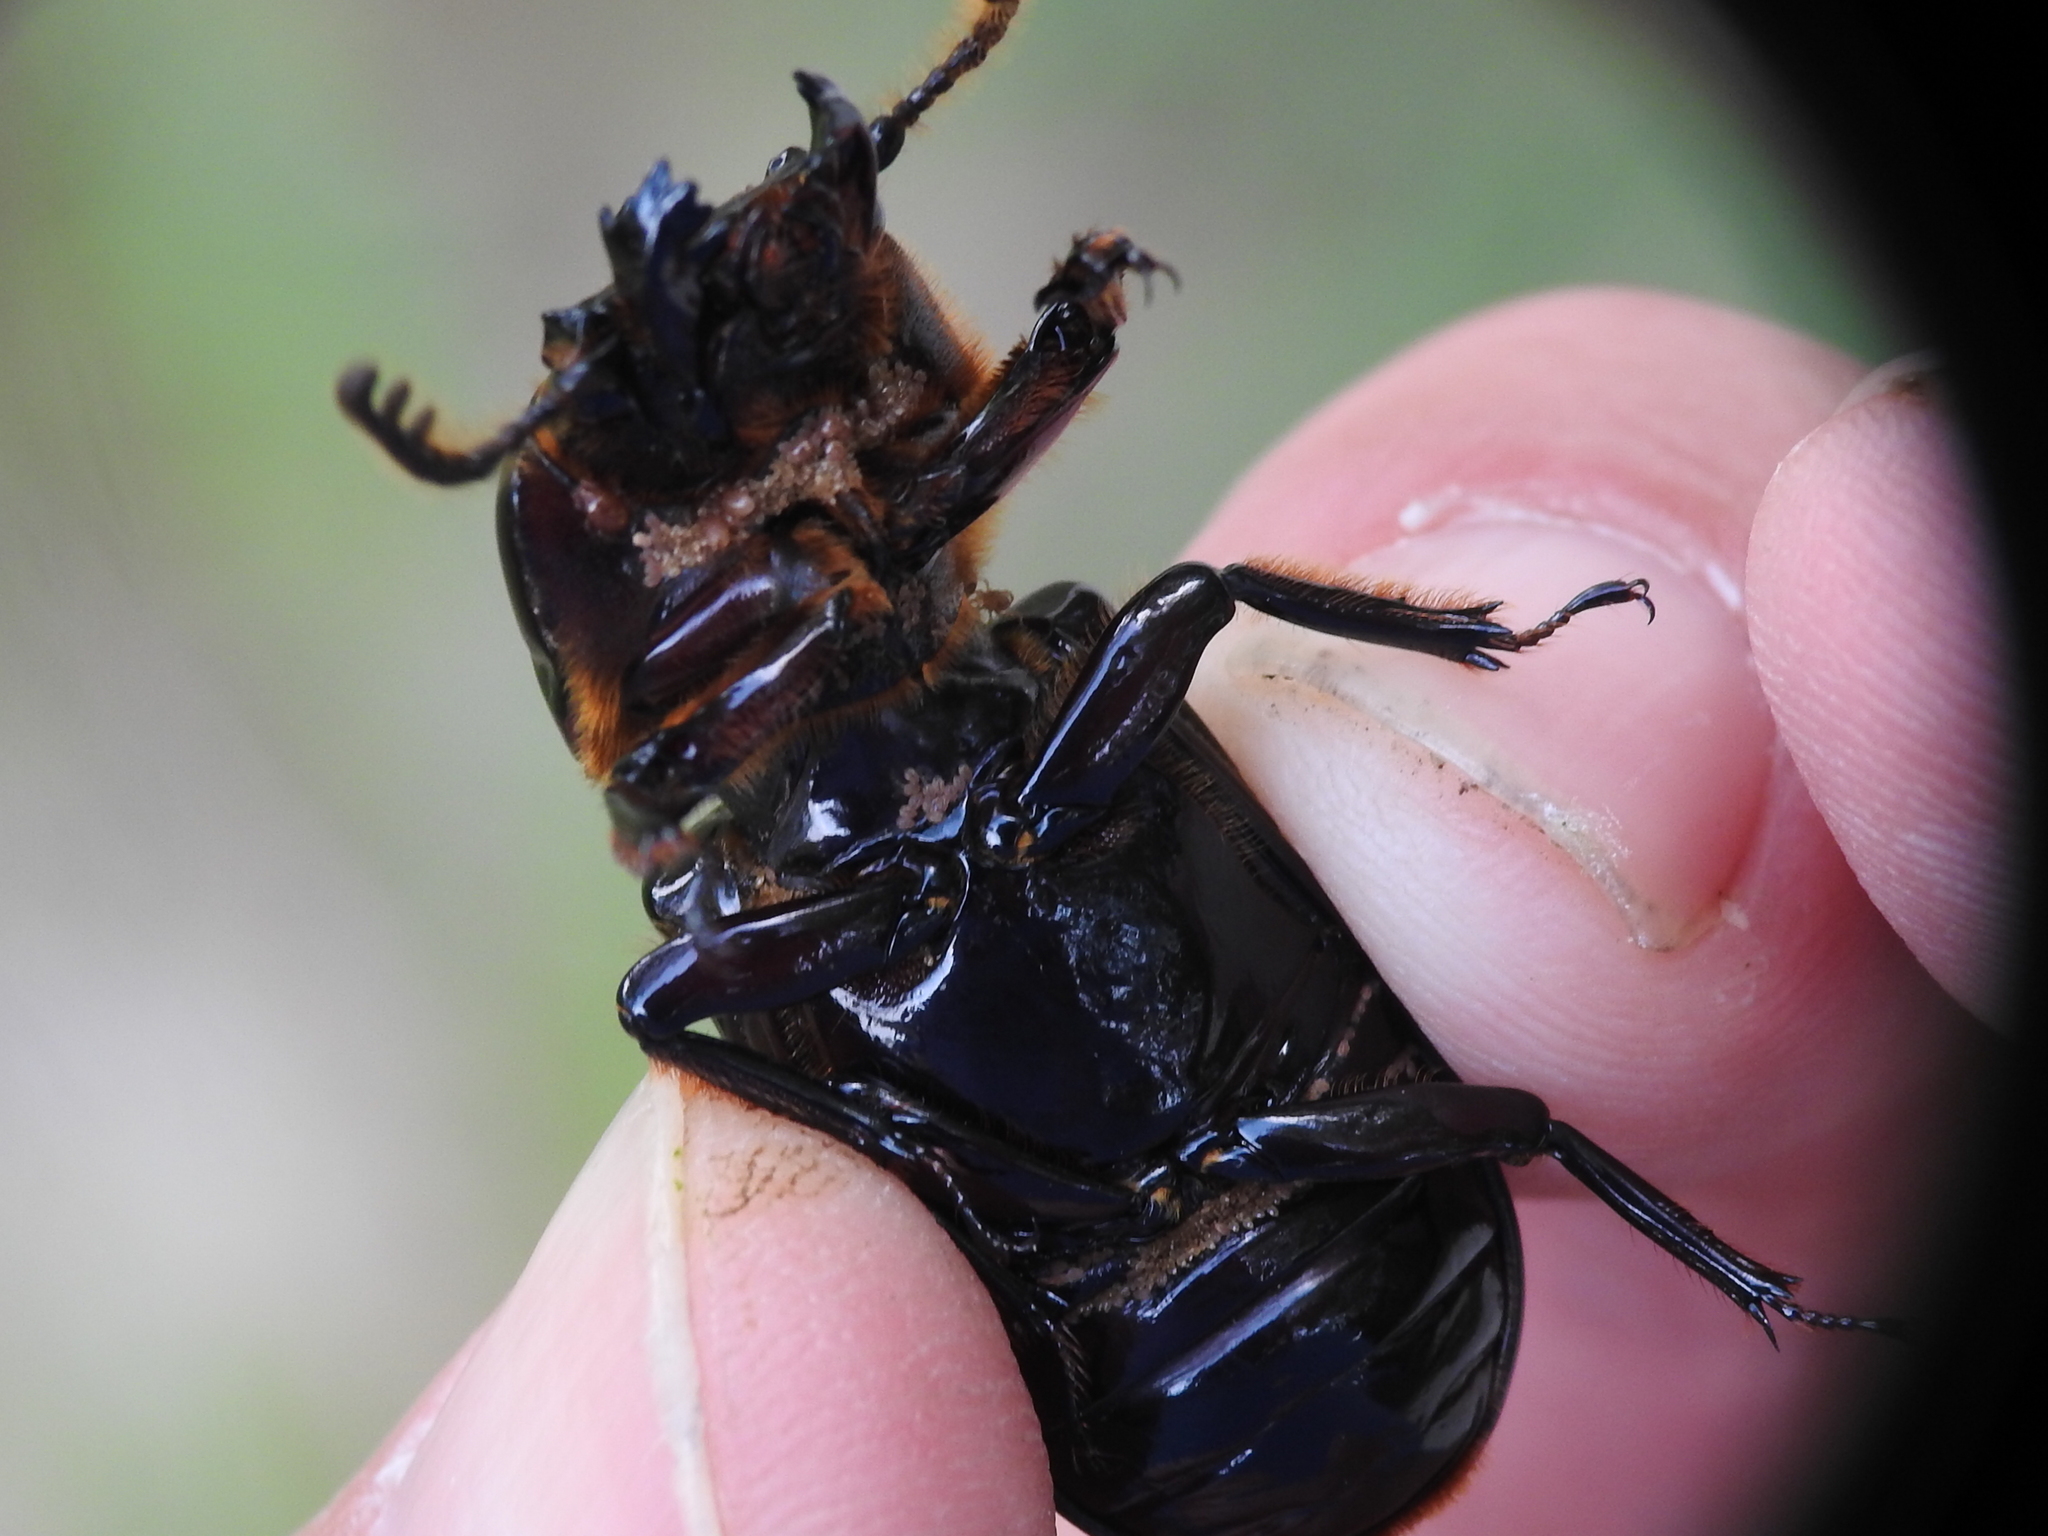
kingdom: Animalia
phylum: Arthropoda
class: Insecta
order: Coleoptera
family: Passalidae
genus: Odontotaenius
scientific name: Odontotaenius disjunctus
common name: Patent leather beetle
